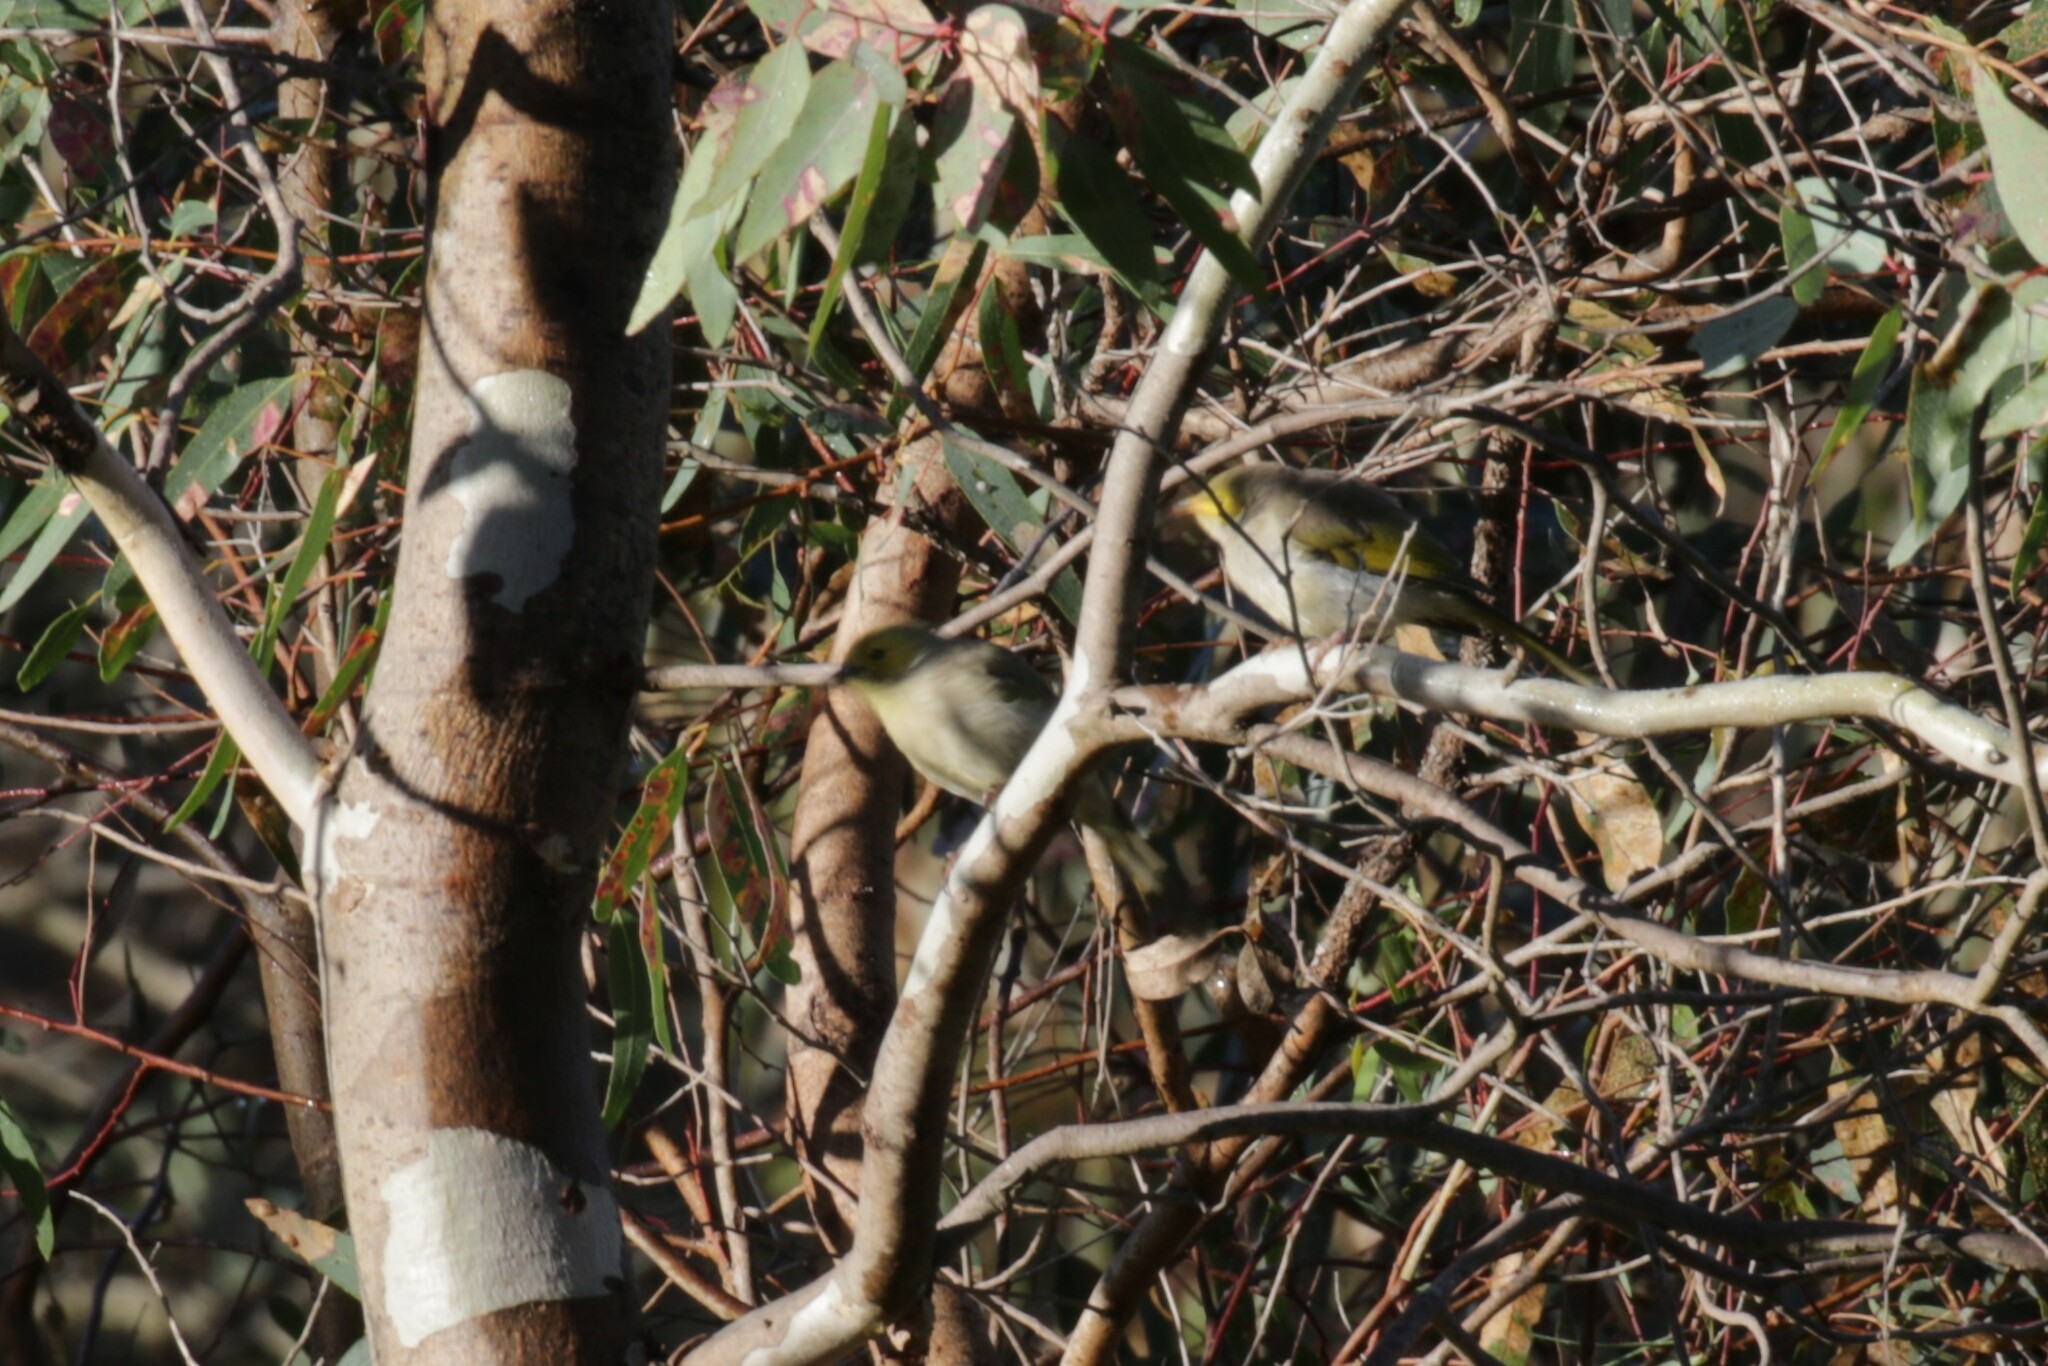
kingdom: Animalia
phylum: Chordata
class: Aves
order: Passeriformes
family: Meliphagidae
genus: Ptilotula
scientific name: Ptilotula penicillata
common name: White-plumed honeyeater
